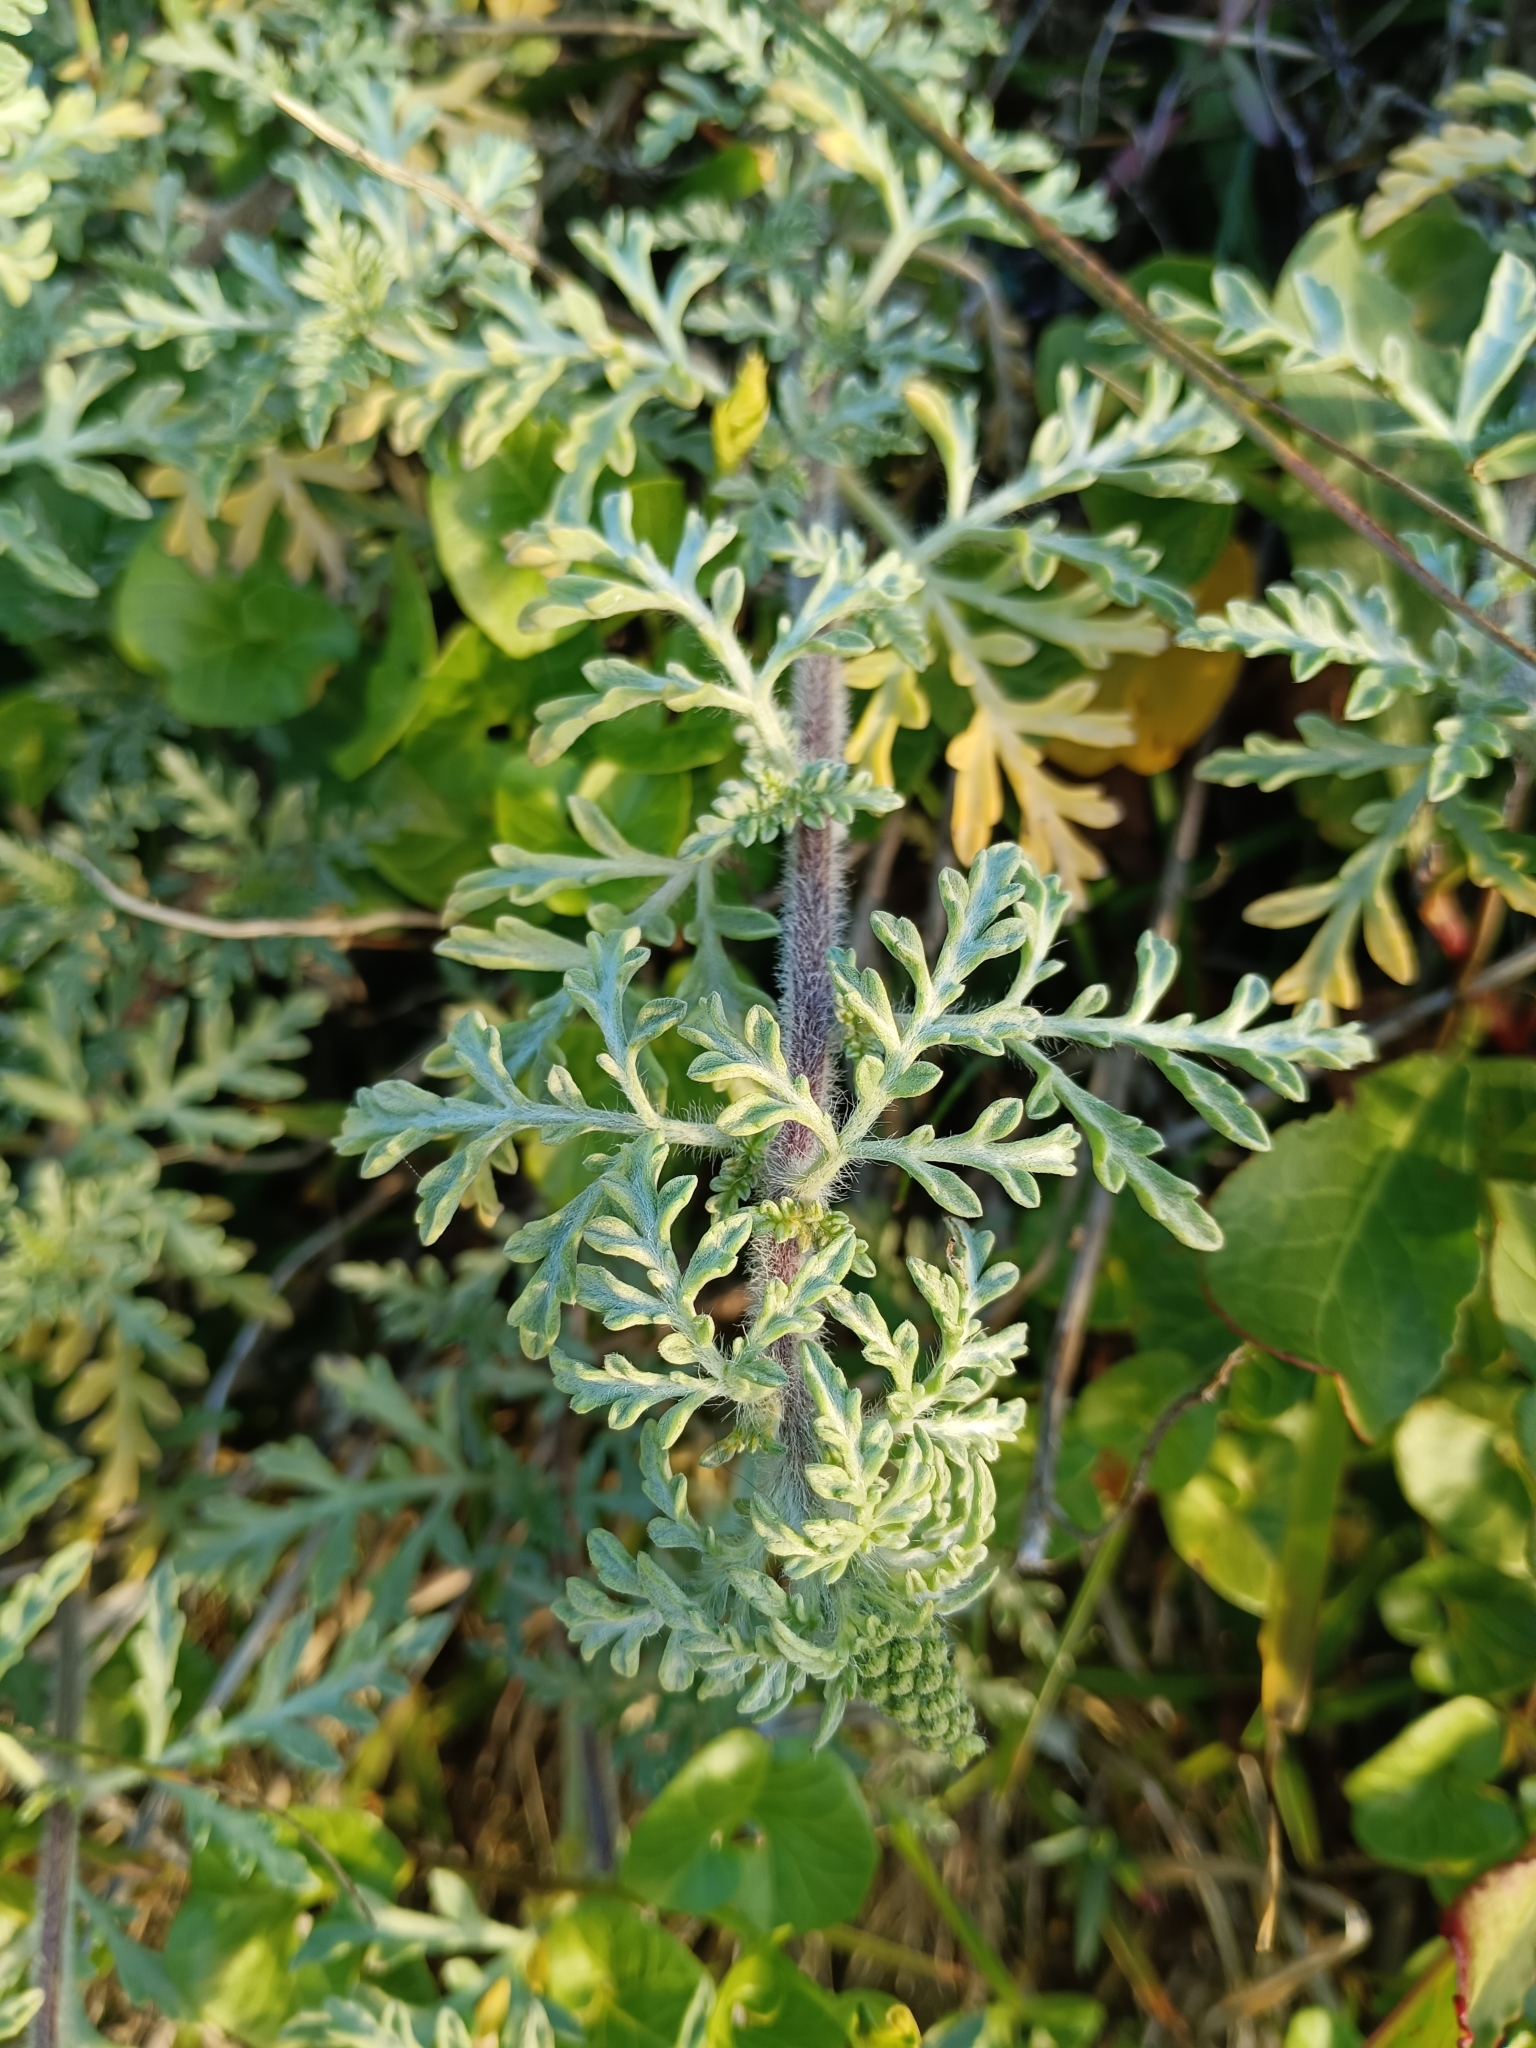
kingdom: Plantae
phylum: Tracheophyta
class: Magnoliopsida
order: Asterales
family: Asteraceae
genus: Ambrosia
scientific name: Ambrosia chamissonis
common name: Beachbur
